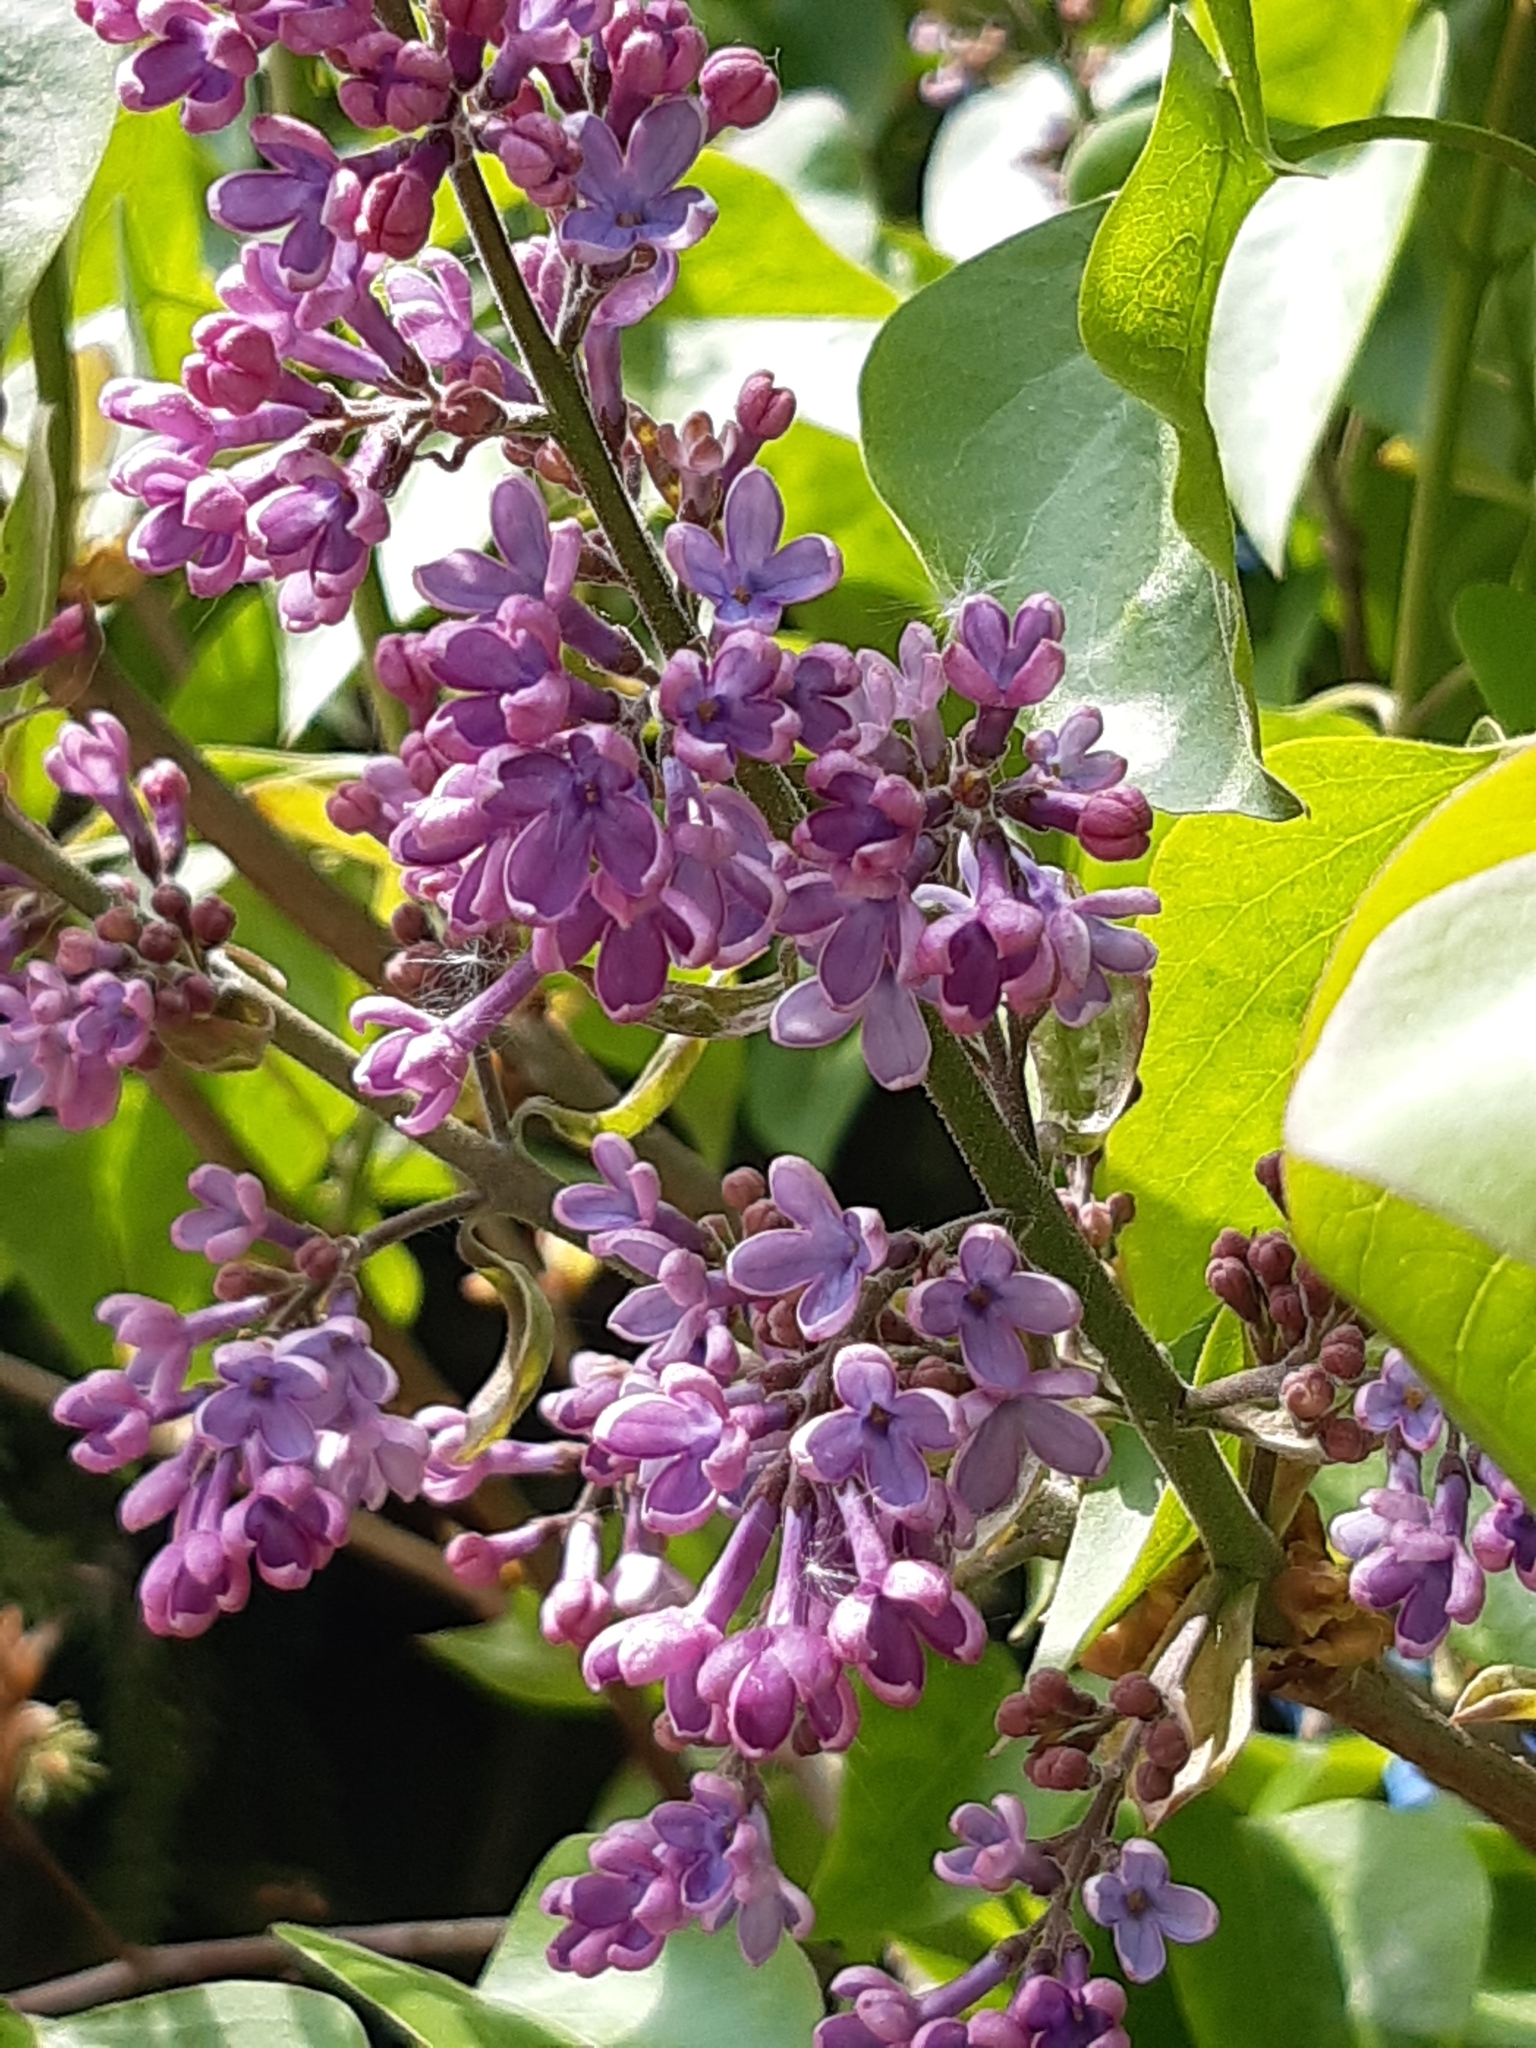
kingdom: Plantae
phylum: Tracheophyta
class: Magnoliopsida
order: Lamiales
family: Oleaceae
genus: Syringa
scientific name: Syringa vulgaris
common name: Common lilac
